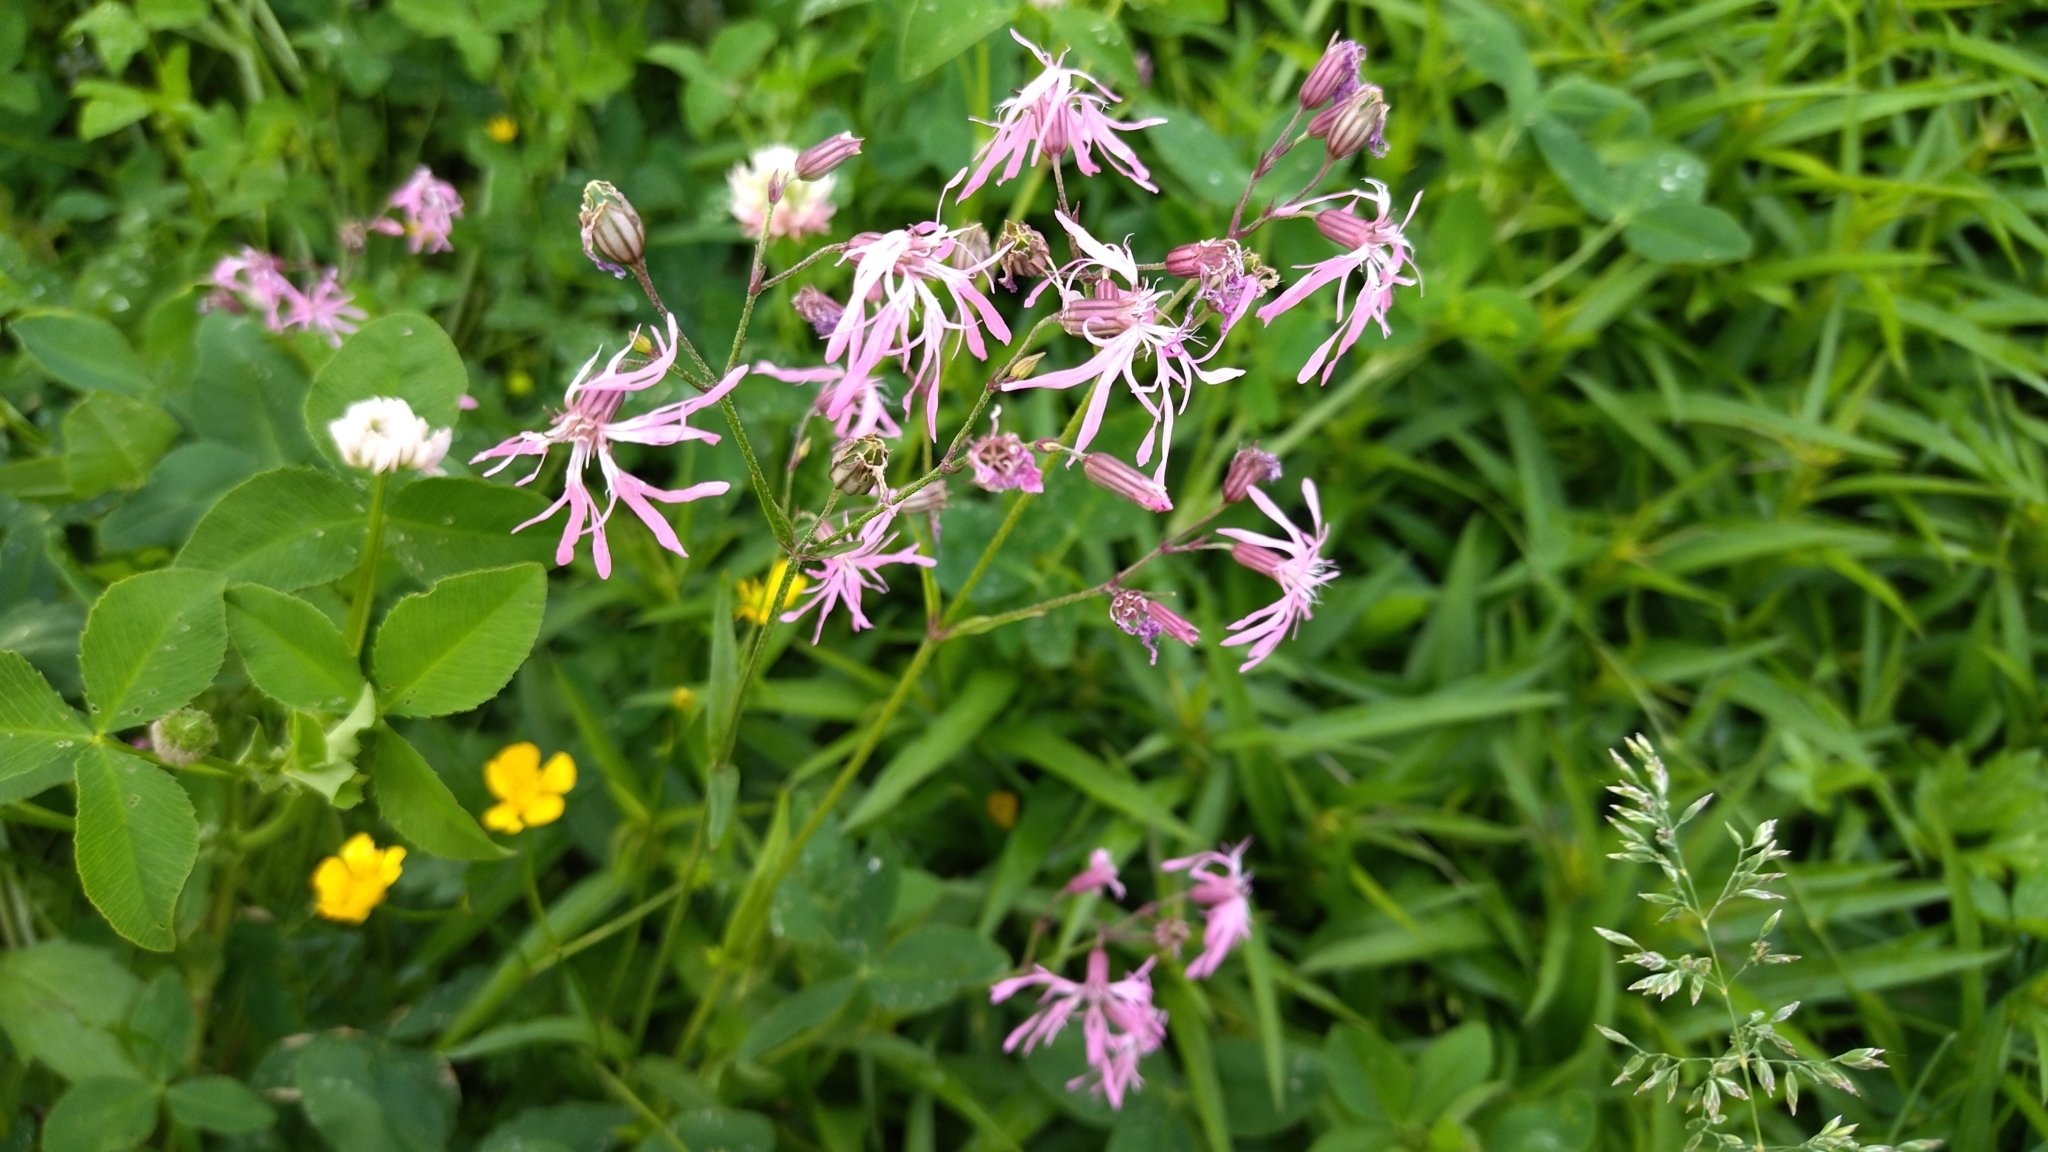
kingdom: Plantae
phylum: Tracheophyta
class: Magnoliopsida
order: Caryophyllales
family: Caryophyllaceae
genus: Silene
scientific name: Silene flos-cuculi
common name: Ragged-robin
